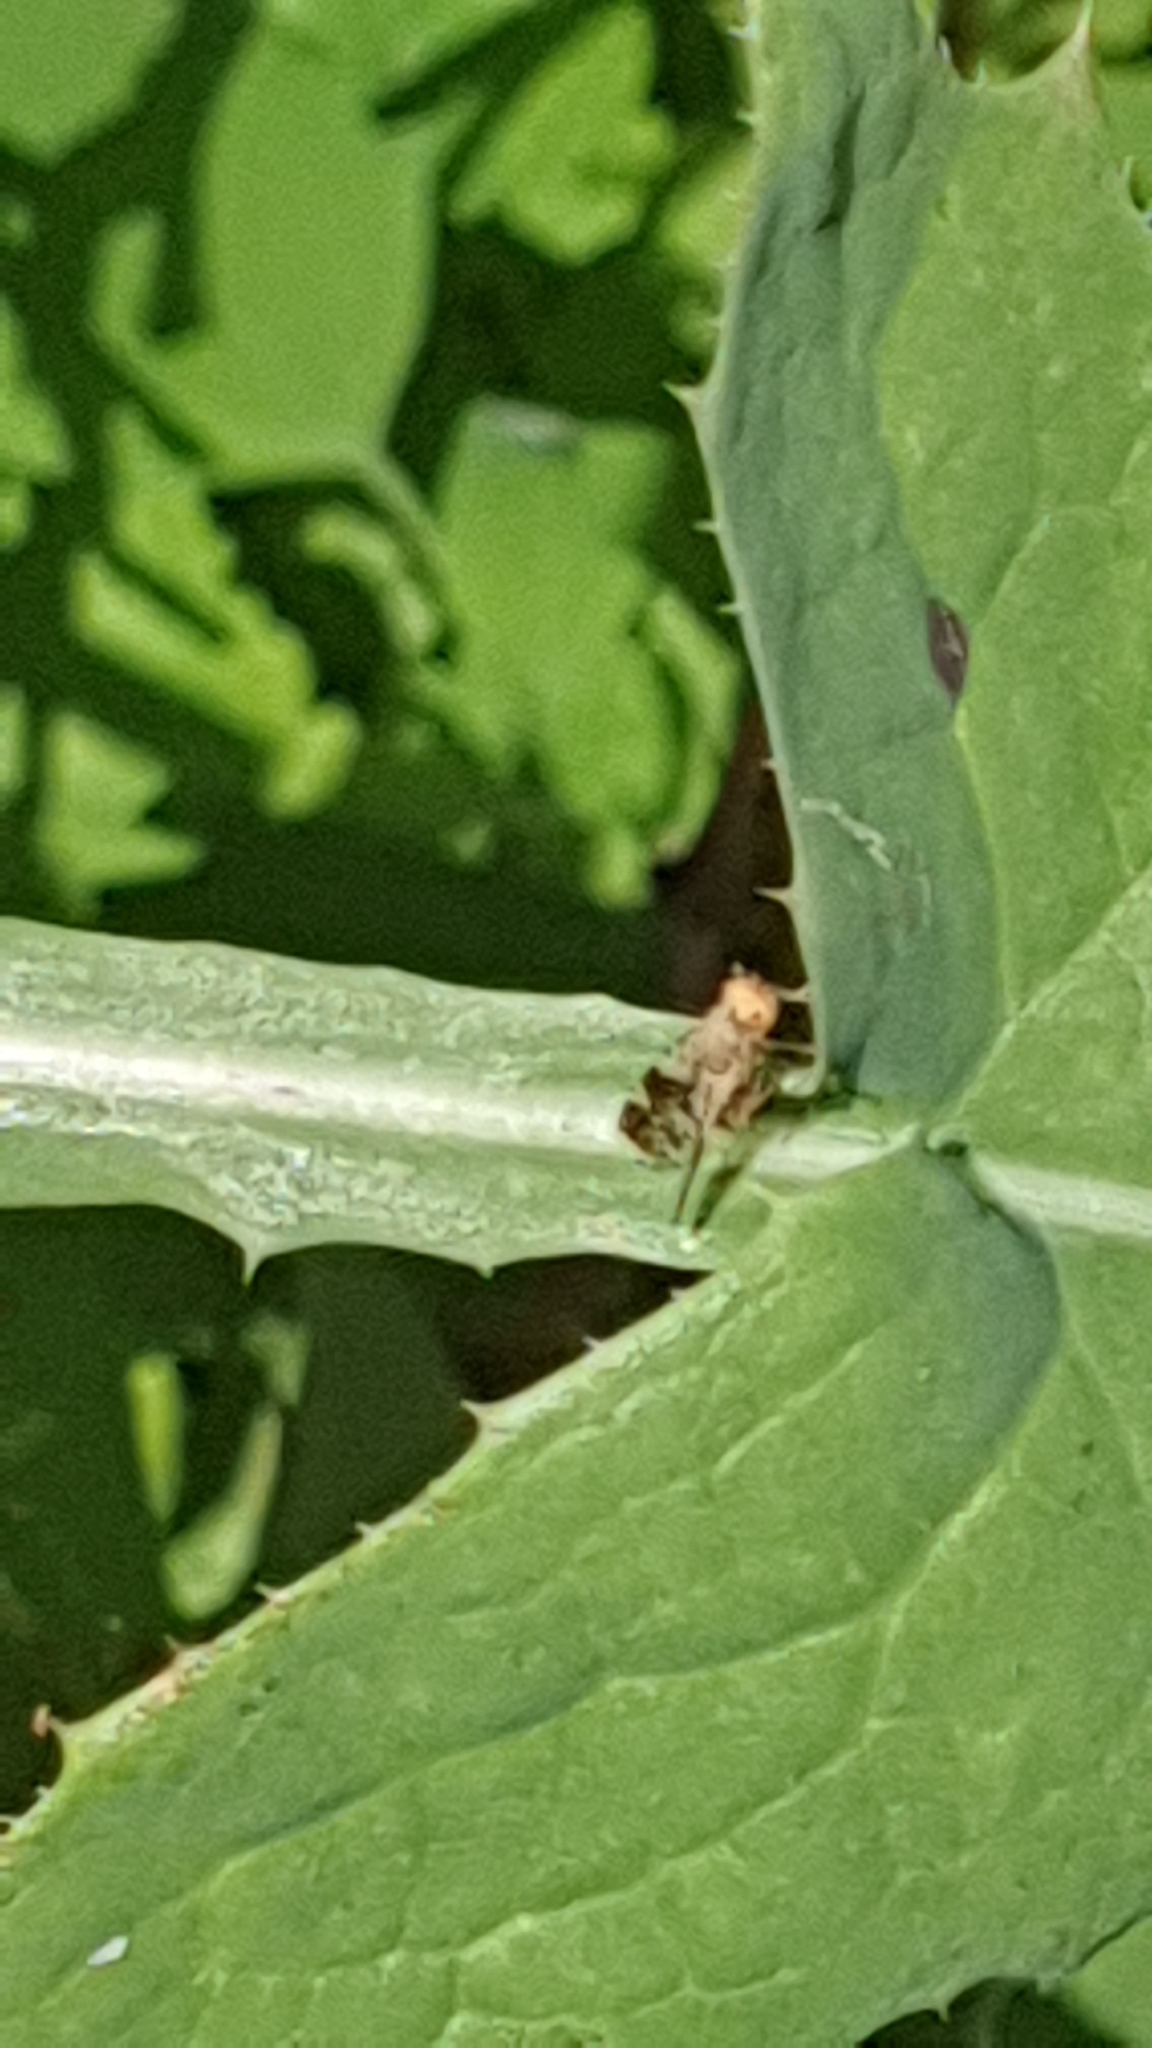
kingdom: Animalia
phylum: Arthropoda
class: Insecta
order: Diptera
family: Tephritidae
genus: Tephritis
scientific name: Tephritis formosa
